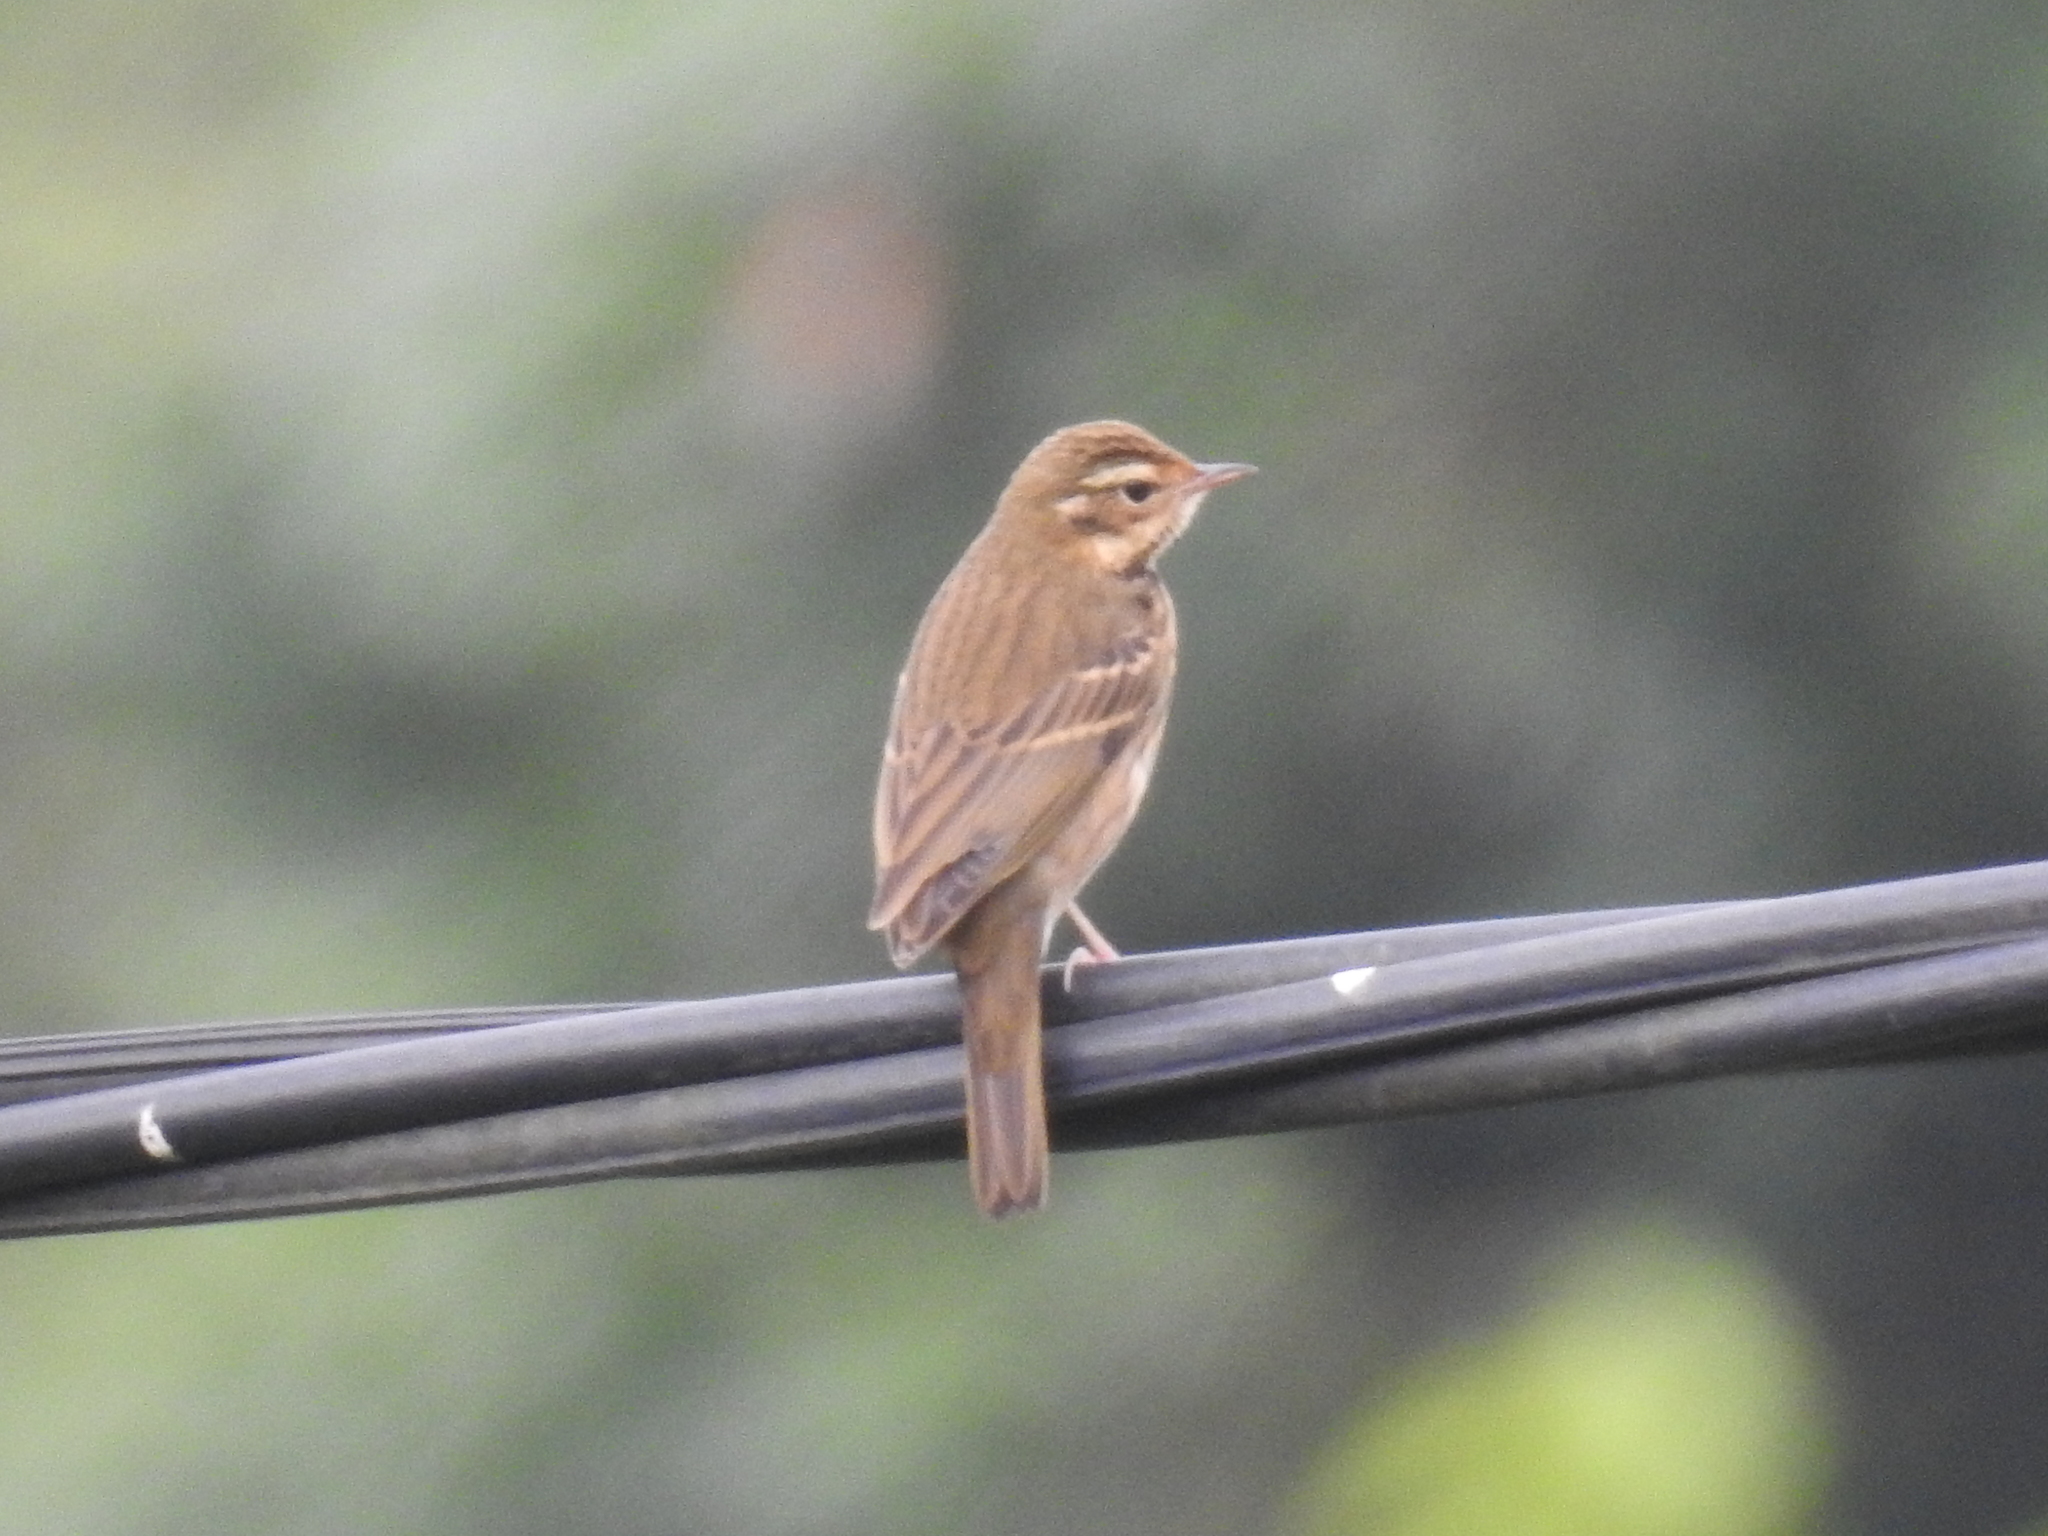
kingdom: Animalia
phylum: Chordata
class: Aves
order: Passeriformes
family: Motacillidae
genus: Anthus
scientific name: Anthus hodgsoni
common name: Olive-backed pipit
